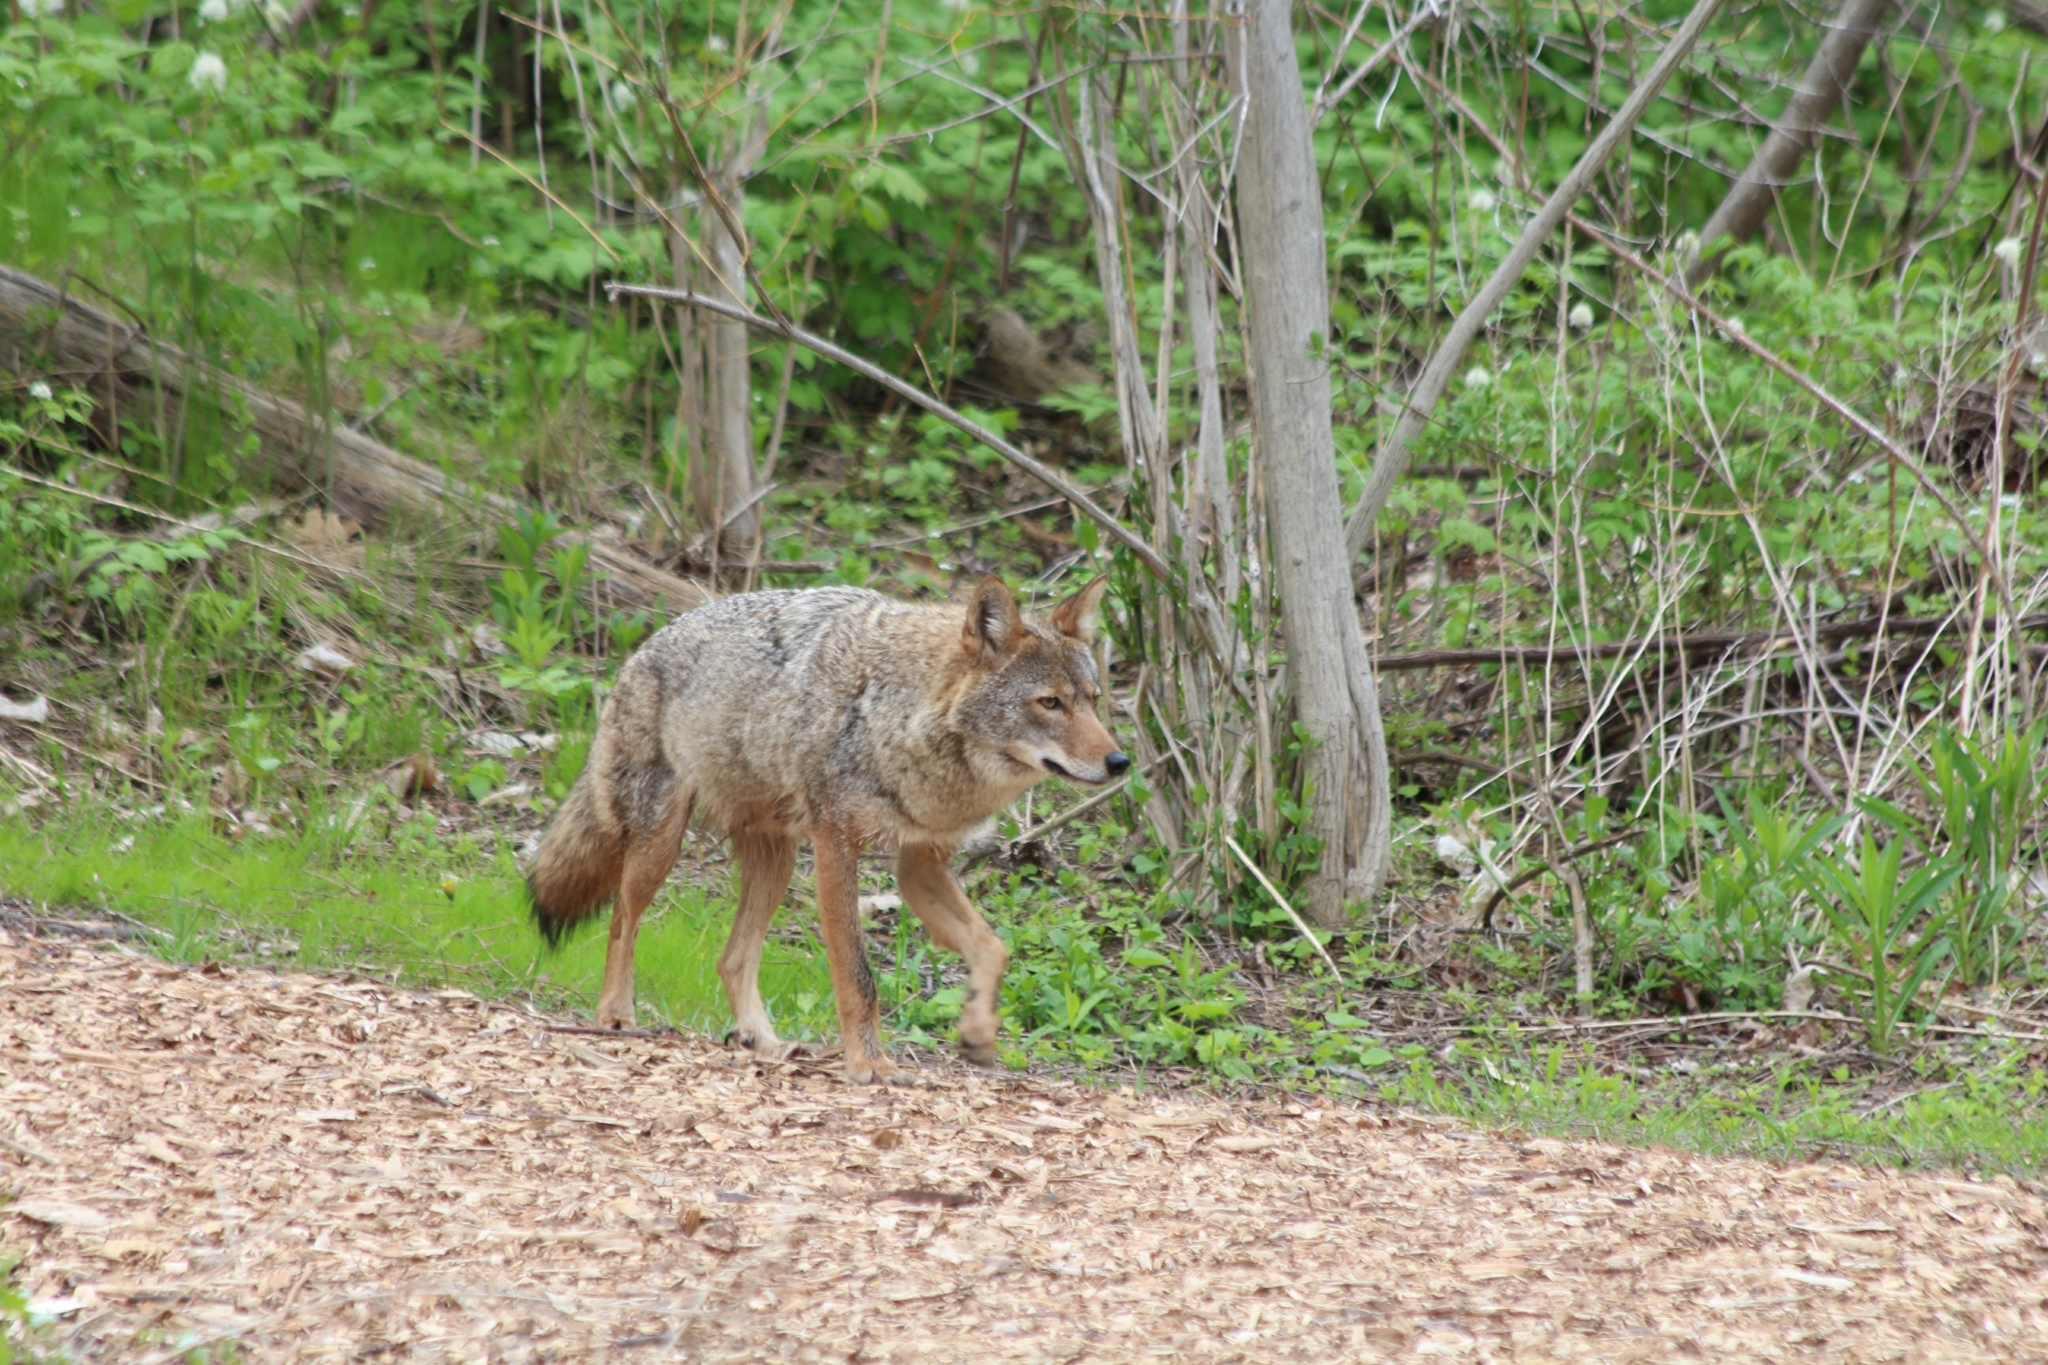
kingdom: Animalia
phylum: Chordata
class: Mammalia
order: Carnivora
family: Canidae
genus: Canis
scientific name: Canis latrans
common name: Coyote
